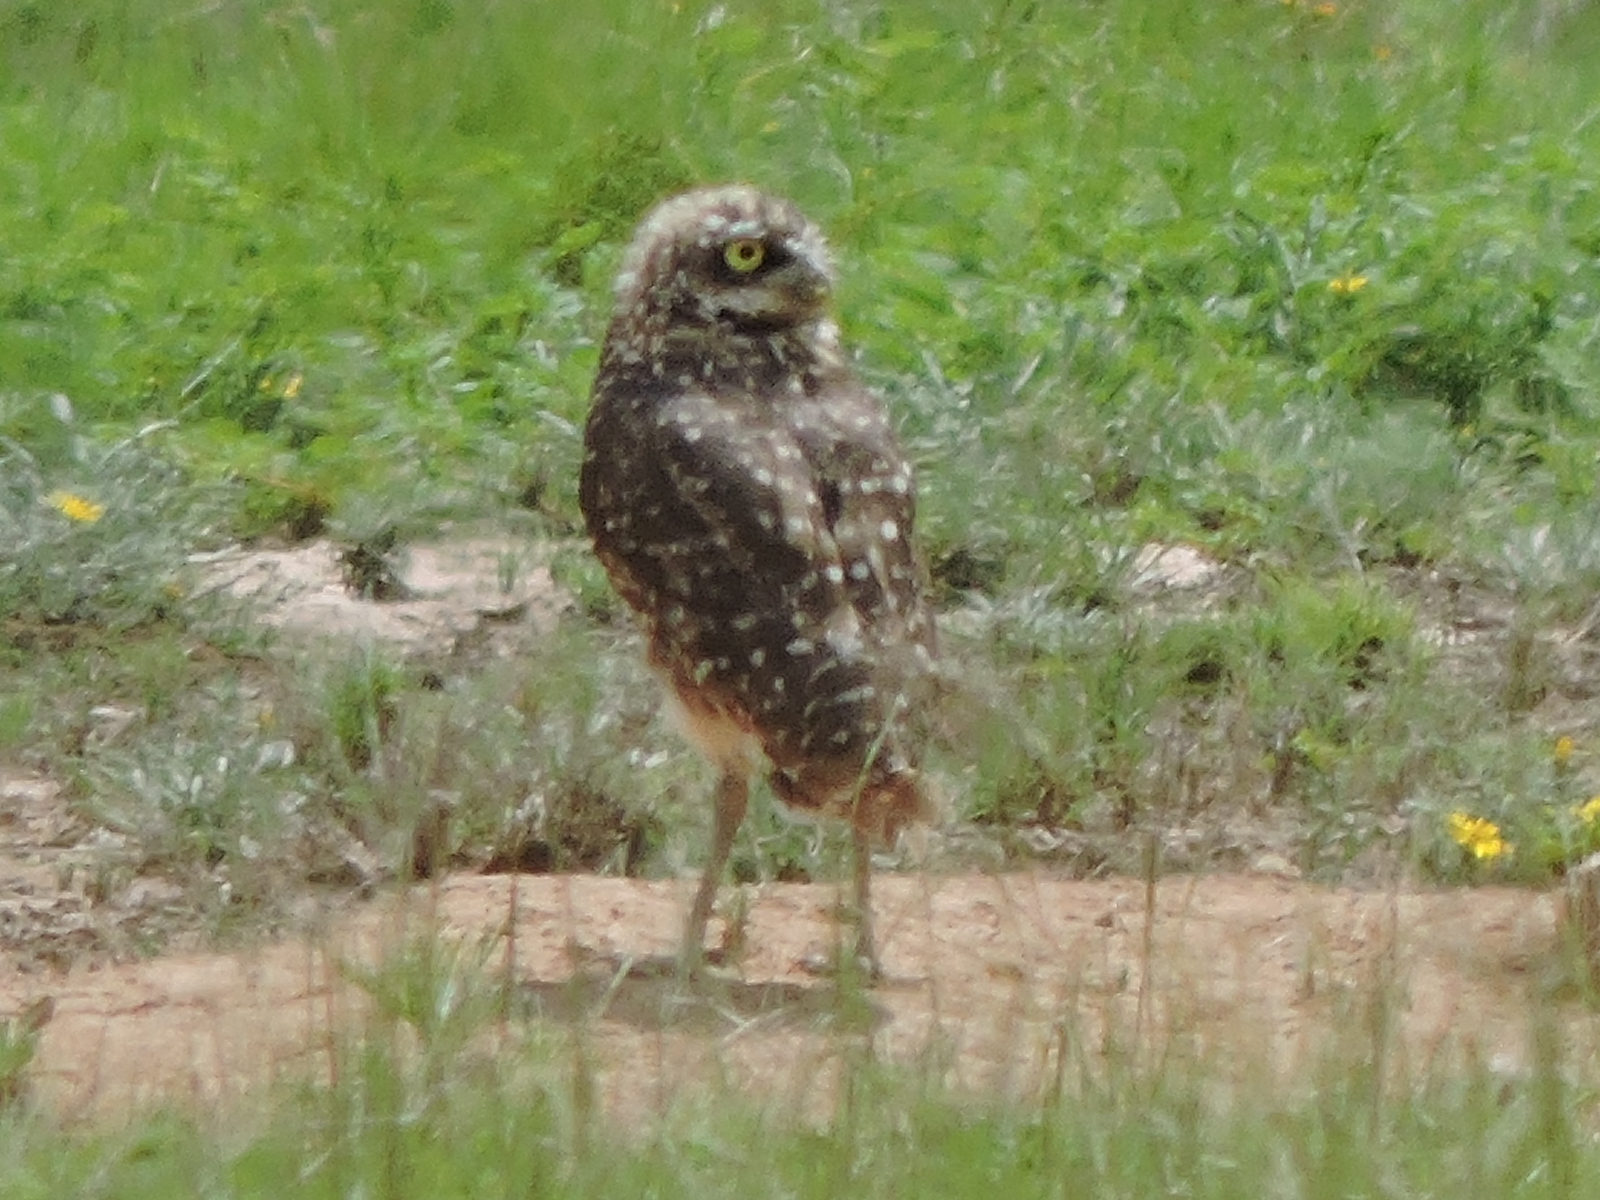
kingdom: Animalia
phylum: Chordata
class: Aves
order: Strigiformes
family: Strigidae
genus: Athene
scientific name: Athene cunicularia
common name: Burrowing owl
